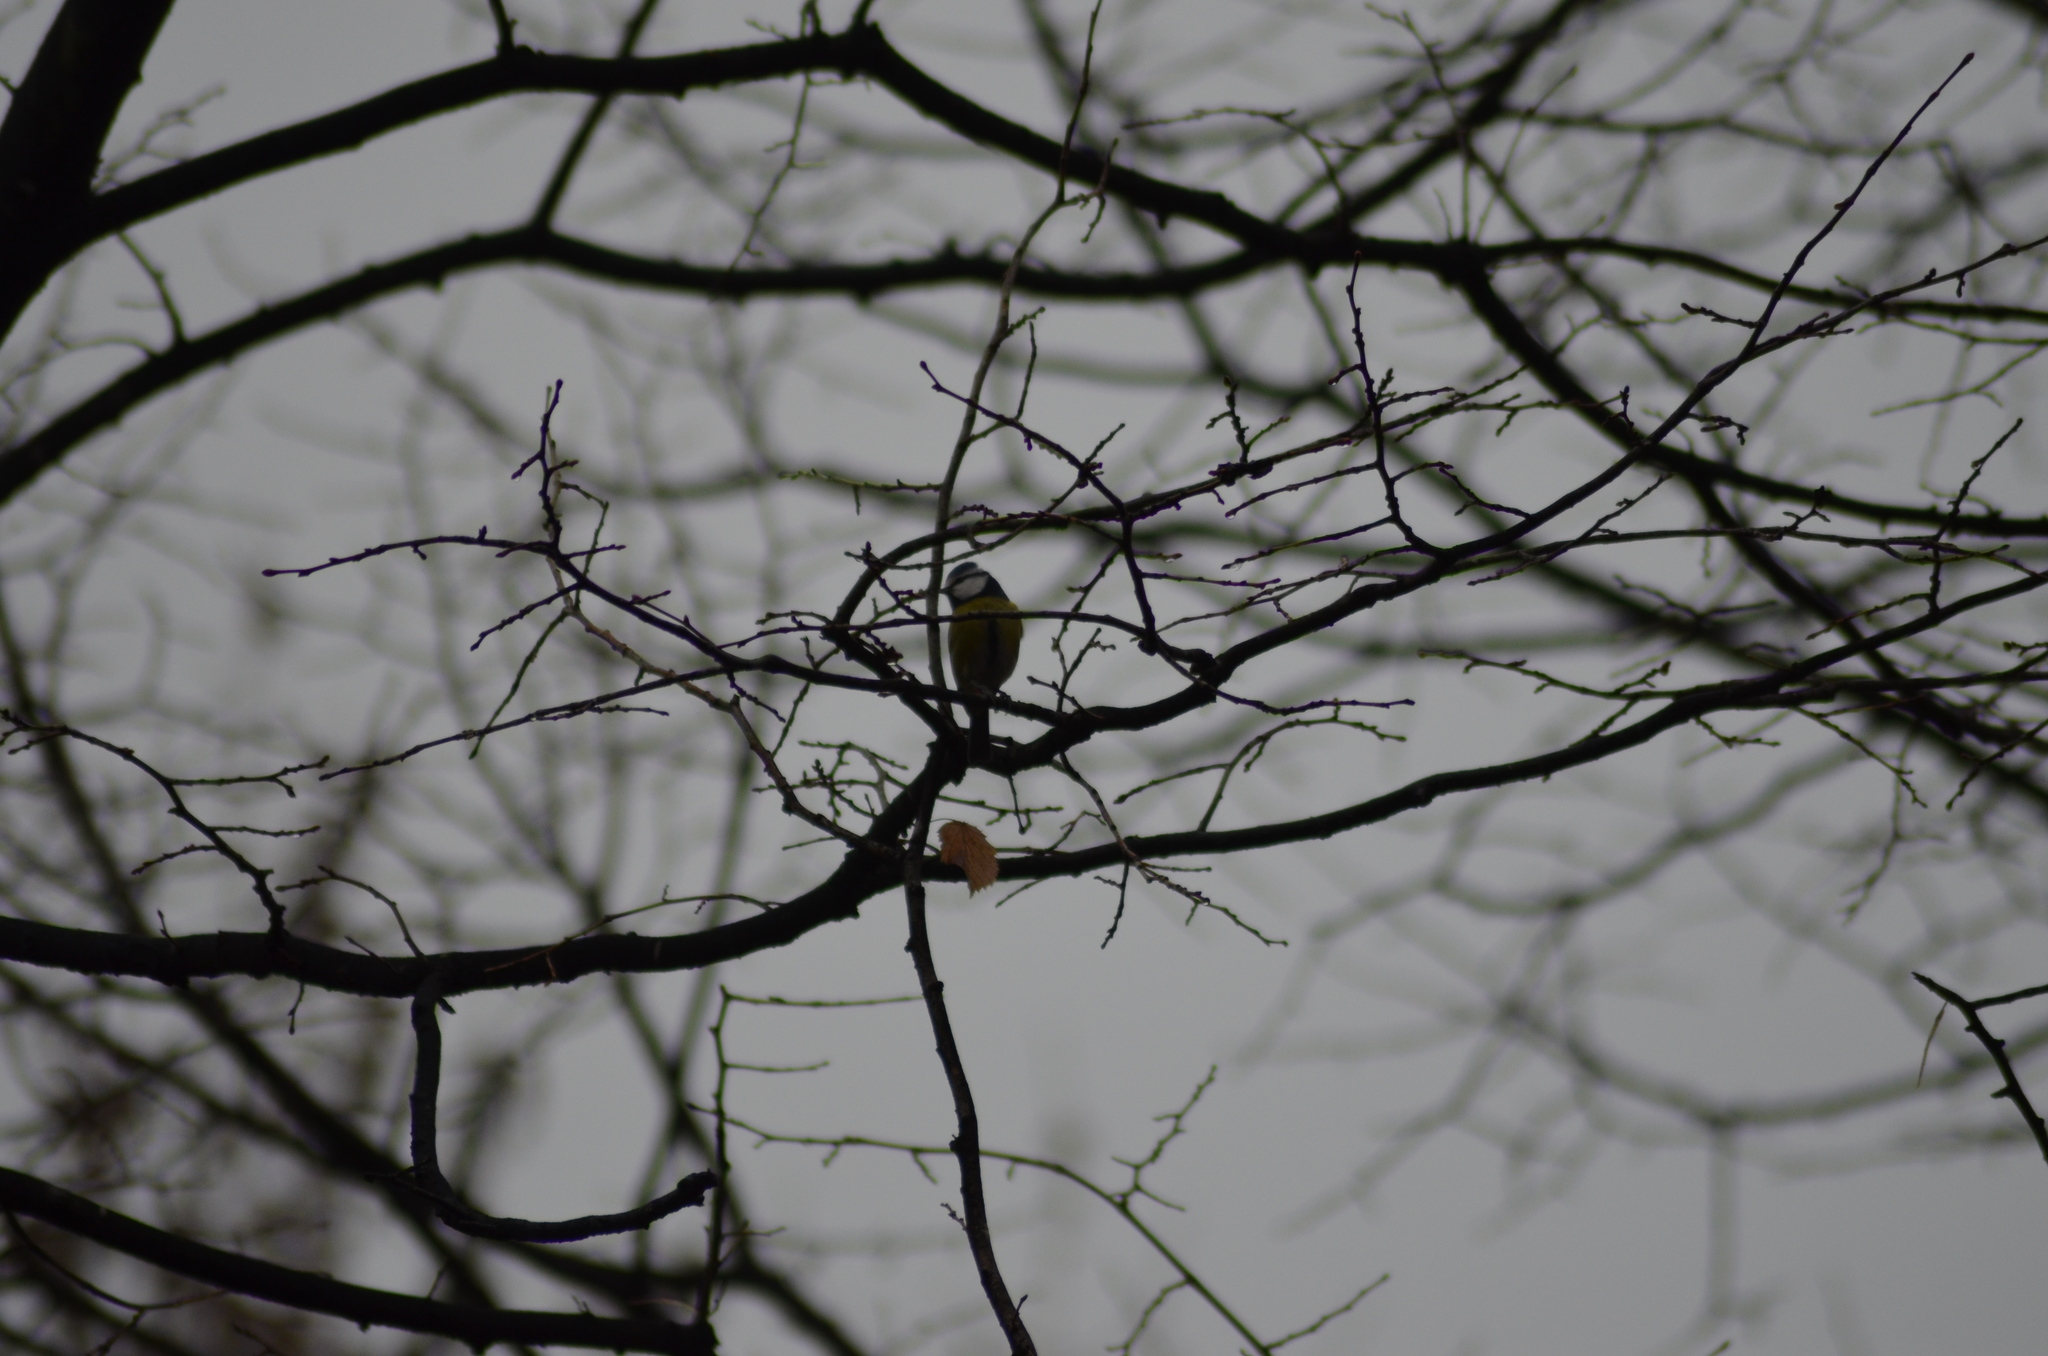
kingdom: Animalia
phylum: Chordata
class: Aves
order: Passeriformes
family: Paridae
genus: Cyanistes
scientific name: Cyanistes caeruleus
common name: Eurasian blue tit
